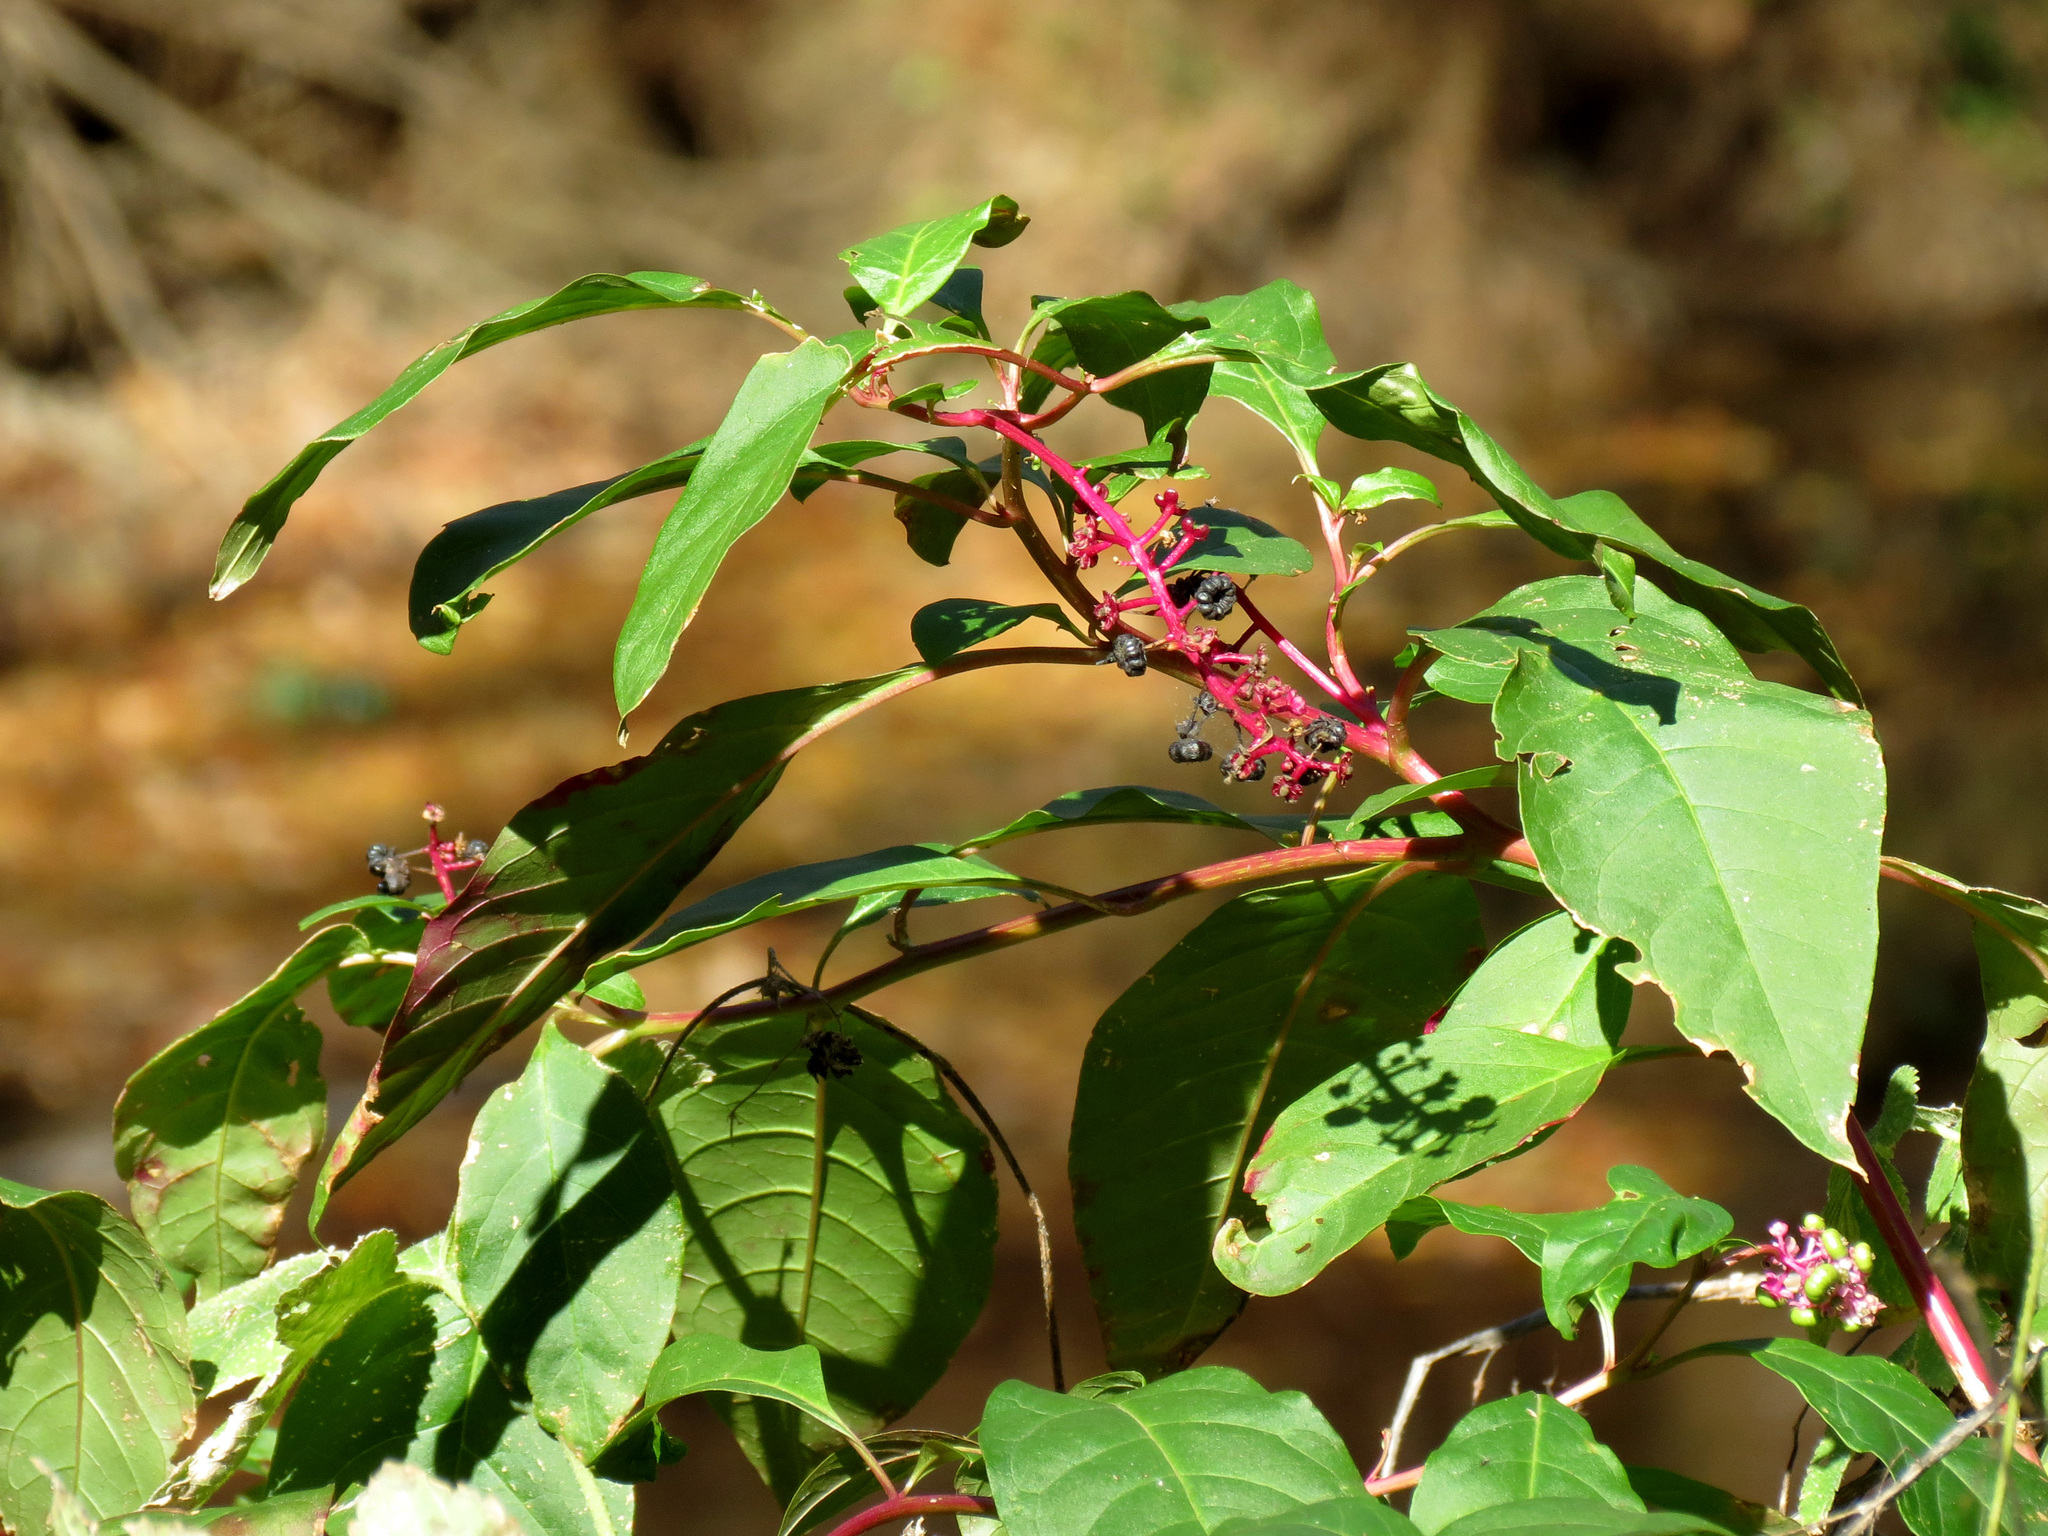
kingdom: Plantae
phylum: Tracheophyta
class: Magnoliopsida
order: Caryophyllales
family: Phytolaccaceae
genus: Phytolacca
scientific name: Phytolacca americana
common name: American pokeweed
